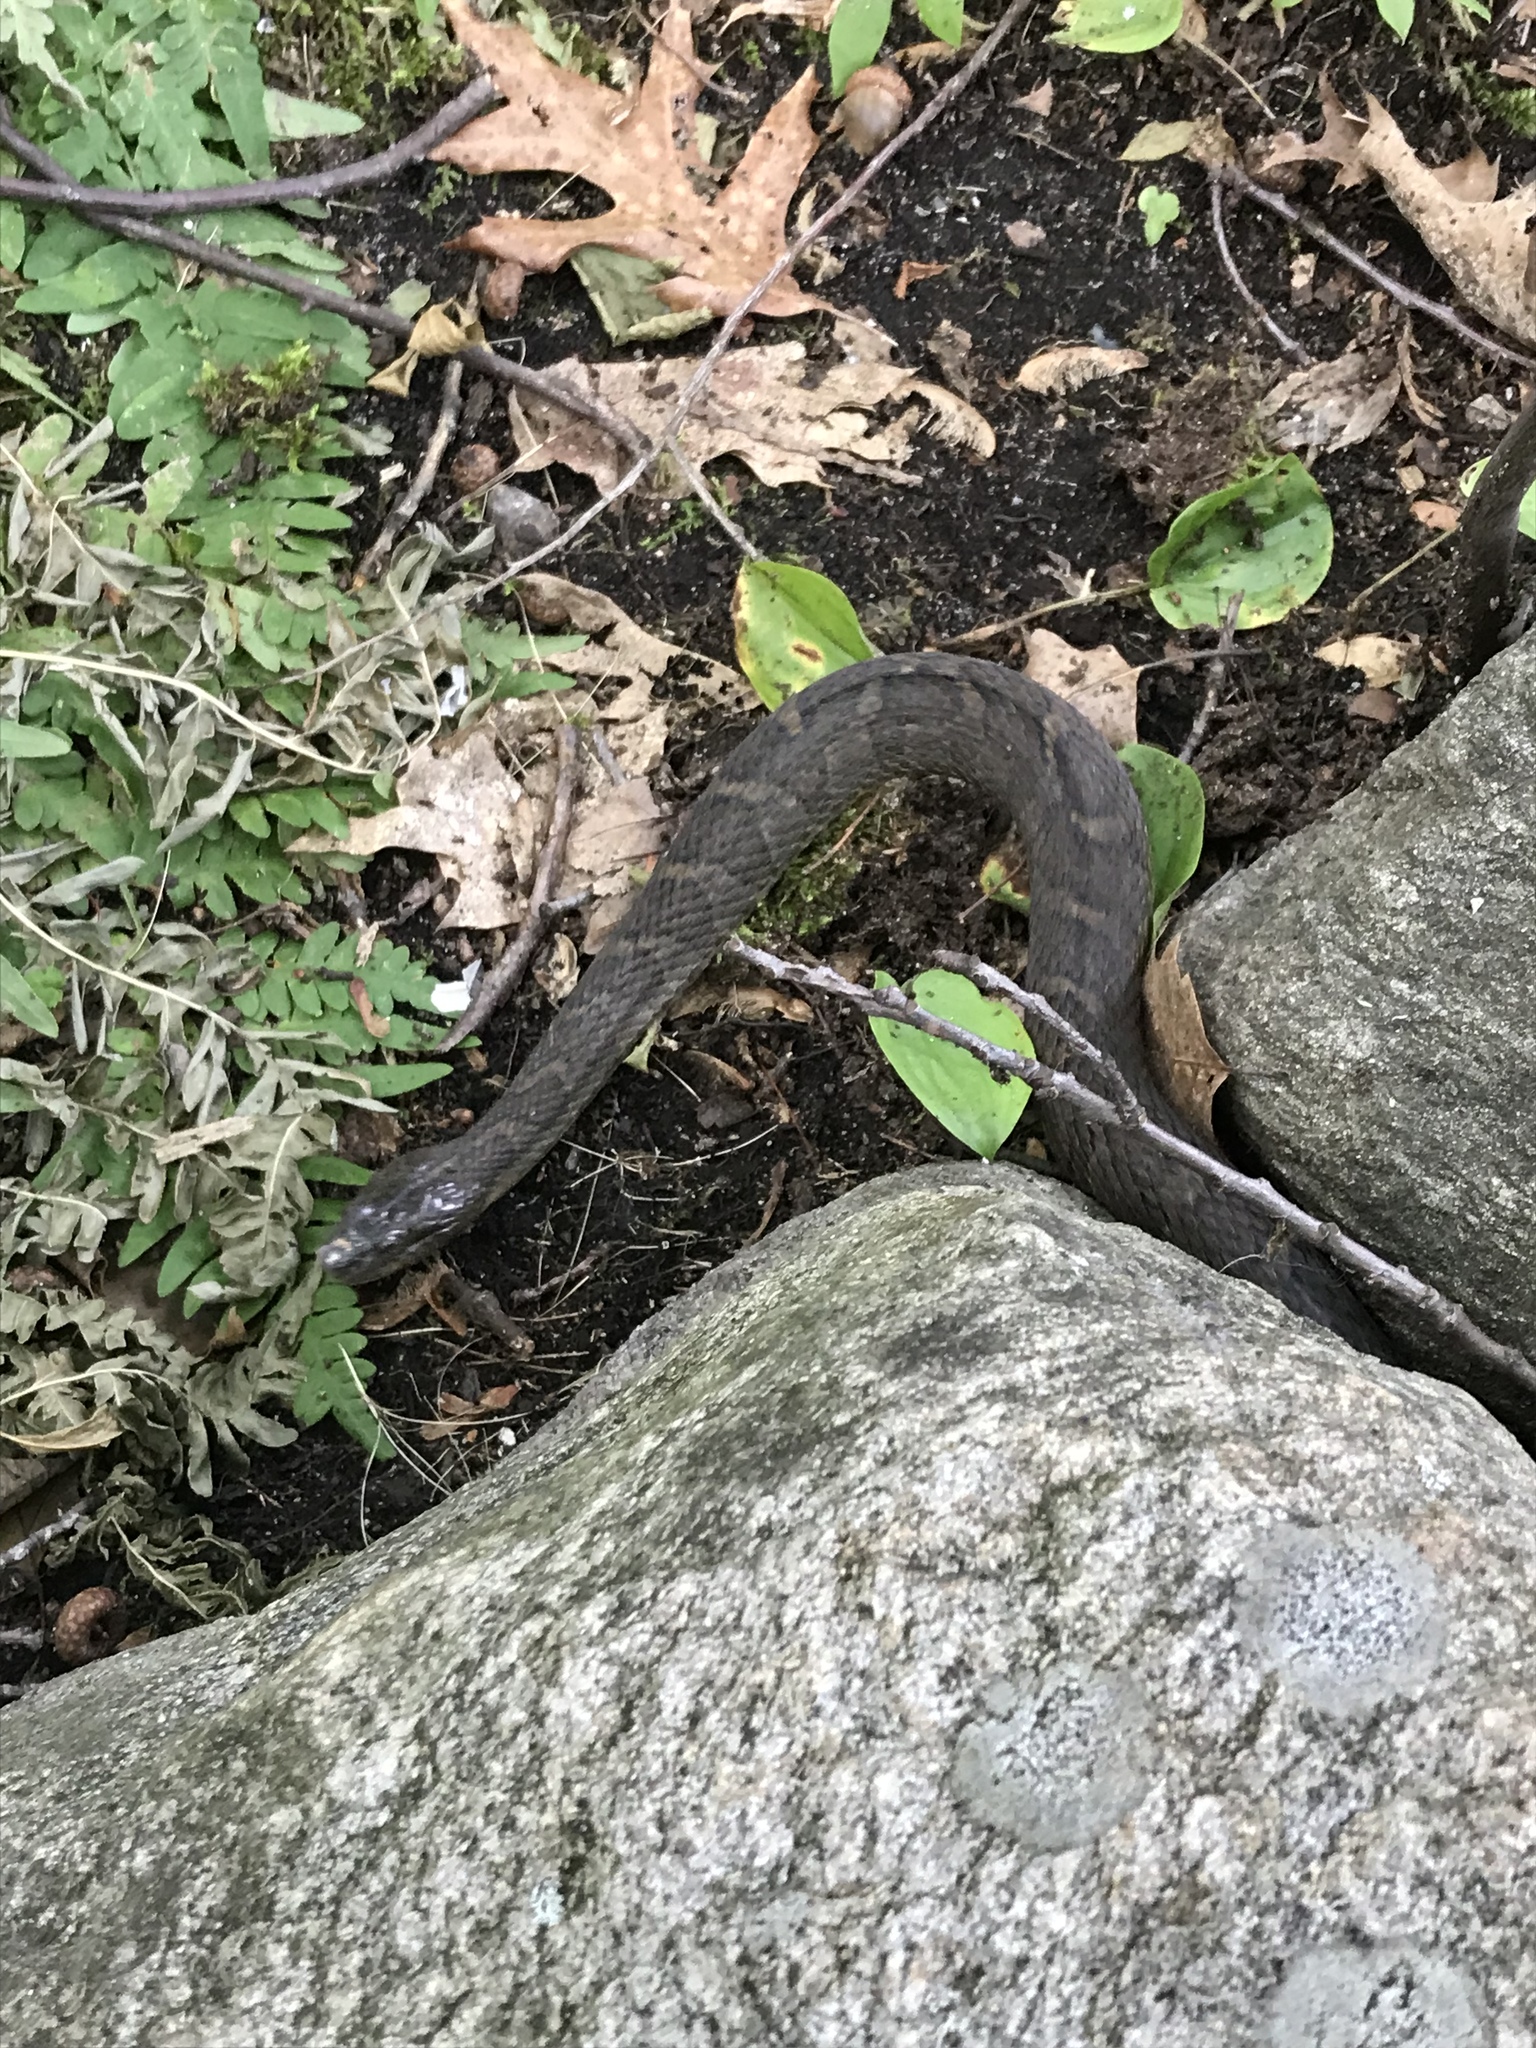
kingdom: Animalia
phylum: Chordata
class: Squamata
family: Colubridae
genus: Nerodia
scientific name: Nerodia sipedon
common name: Northern water snake
